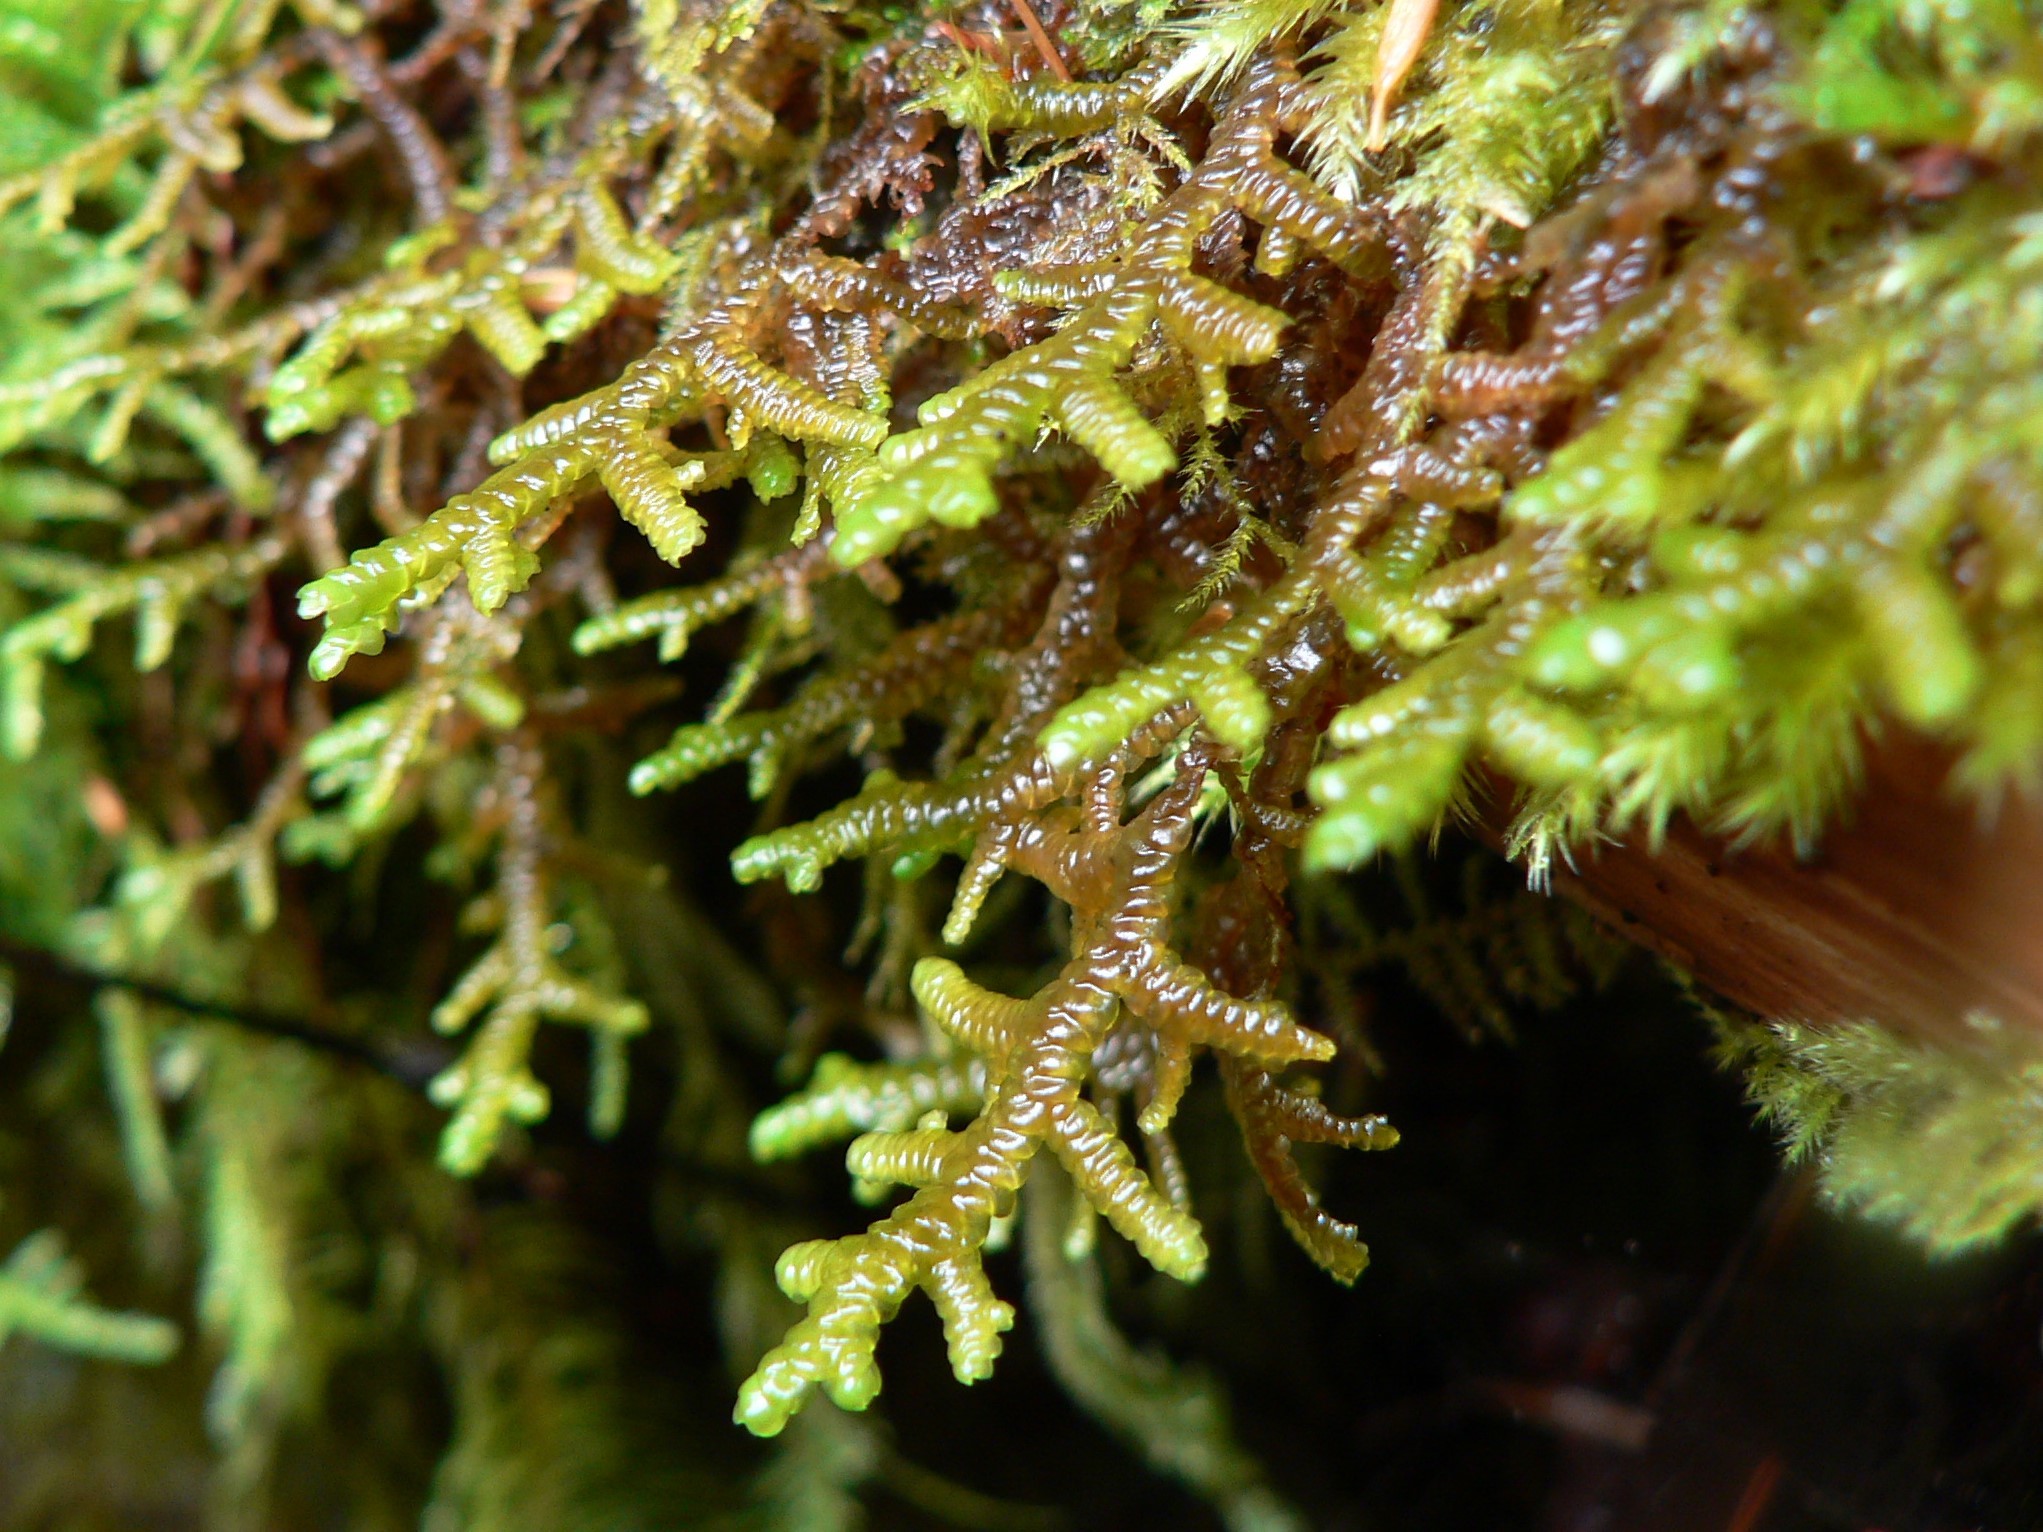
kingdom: Plantae
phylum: Marchantiophyta
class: Jungermanniopsida
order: Porellales
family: Porellaceae
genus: Porella
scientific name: Porella navicularis
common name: Tree ruffle liverwort
